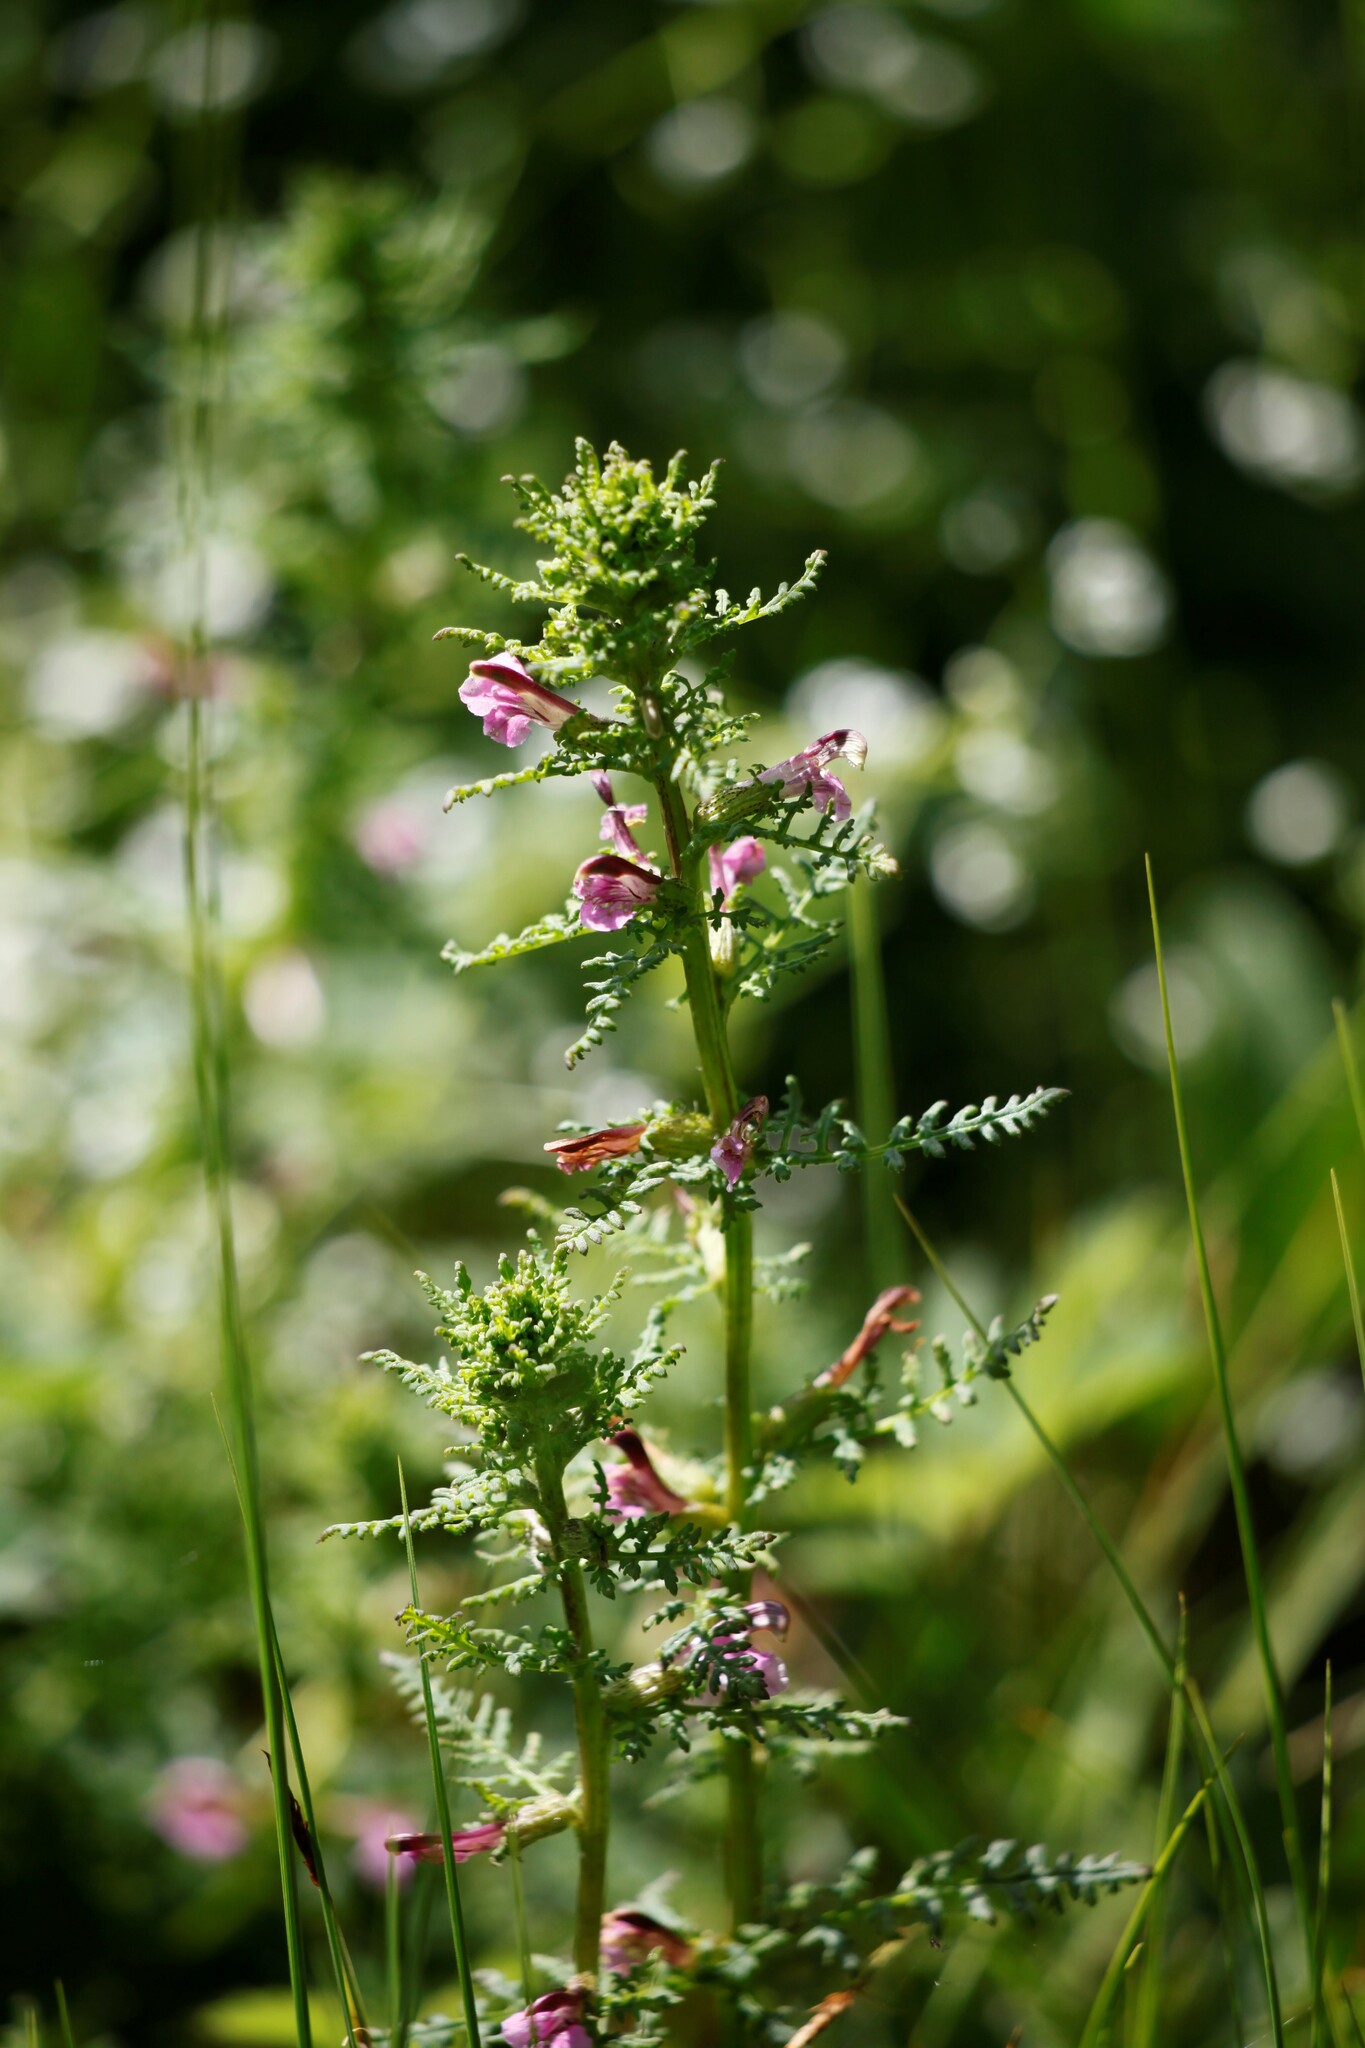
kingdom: Plantae
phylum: Tracheophyta
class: Magnoliopsida
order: Lamiales
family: Orobanchaceae
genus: Pedicularis
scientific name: Pedicularis palustris
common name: Marsh lousewort
